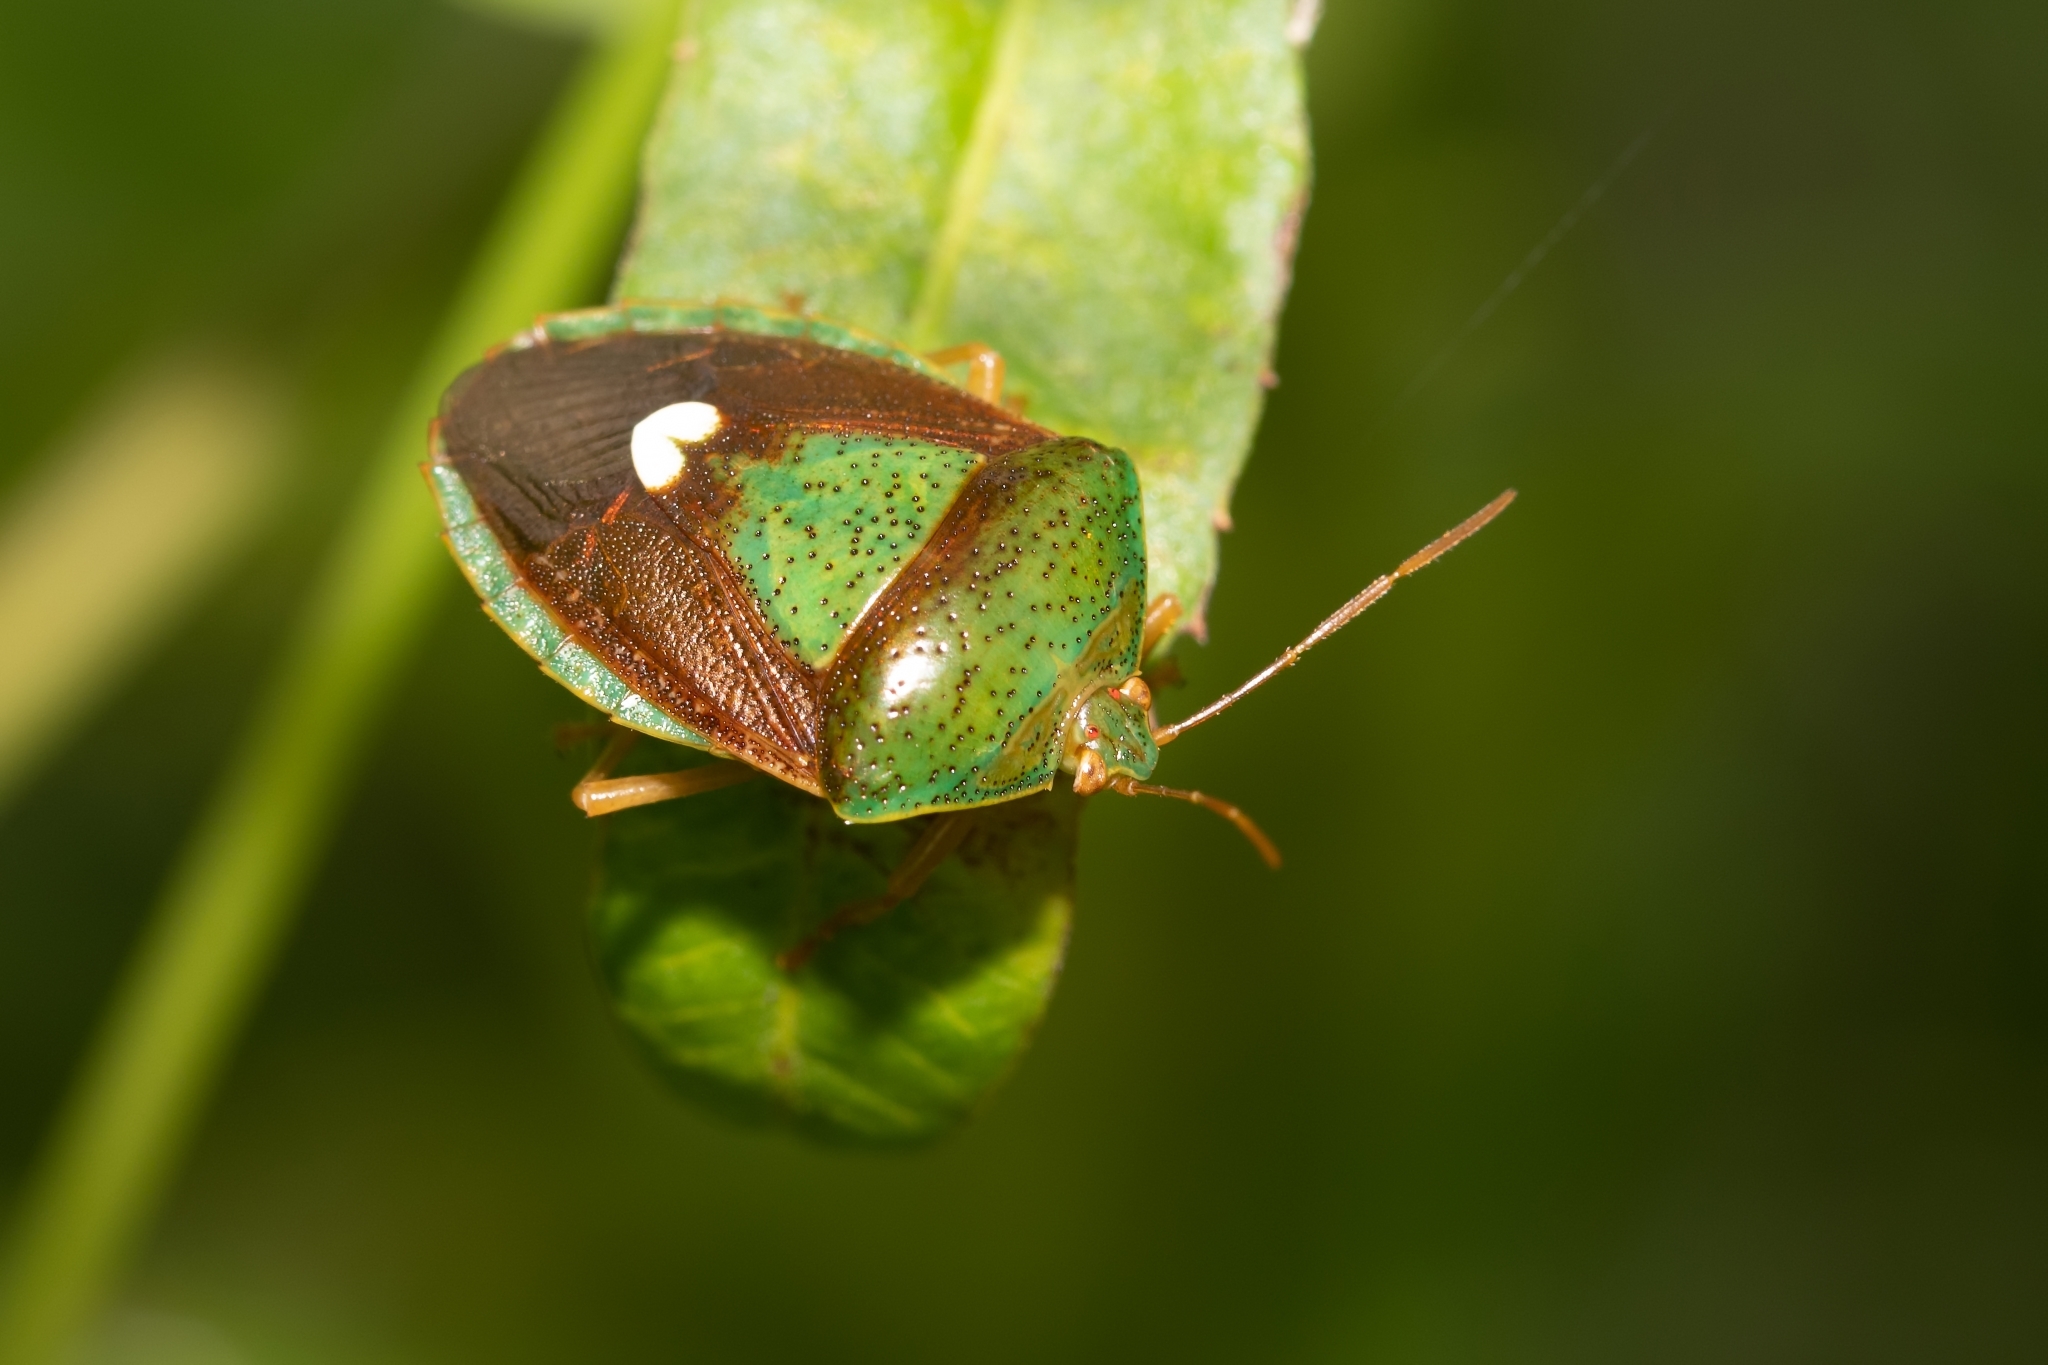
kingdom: Animalia
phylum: Arthropoda
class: Insecta
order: Hemiptera
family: Pentatomidae
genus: Edessa
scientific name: Edessa bifida
